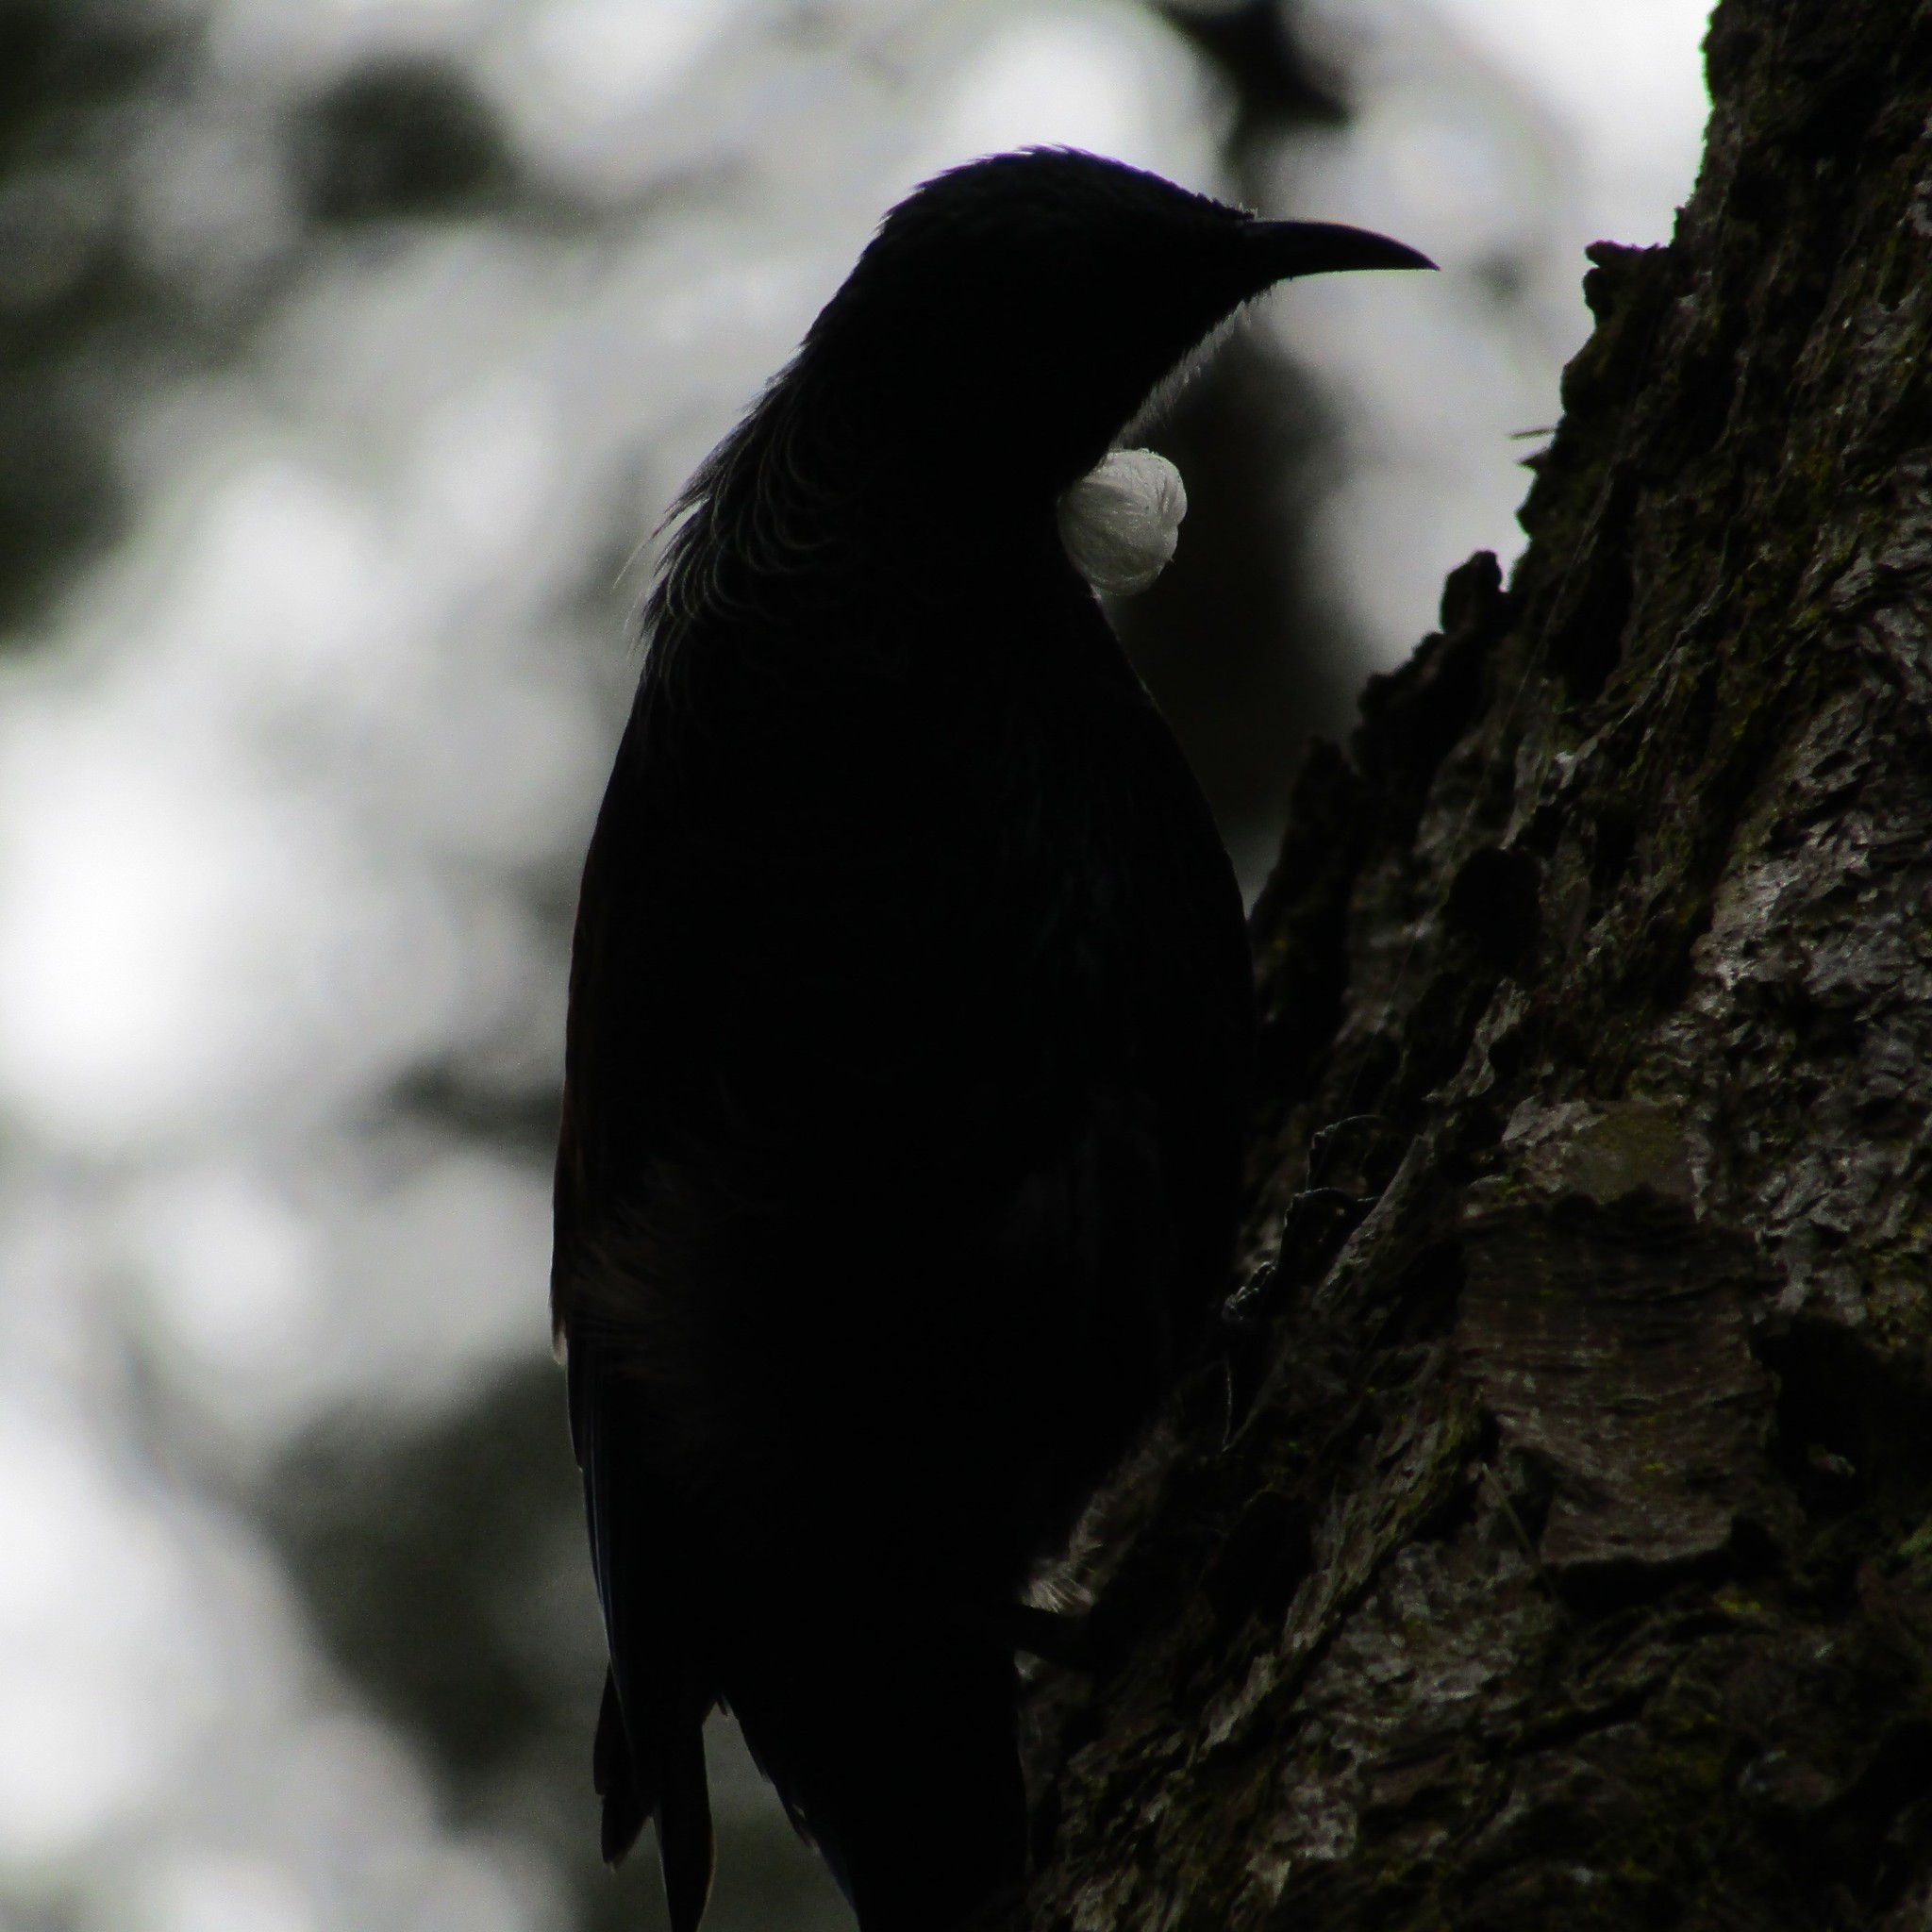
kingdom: Animalia
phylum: Chordata
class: Aves
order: Passeriformes
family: Meliphagidae
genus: Prosthemadera
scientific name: Prosthemadera novaeseelandiae
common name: Tui
